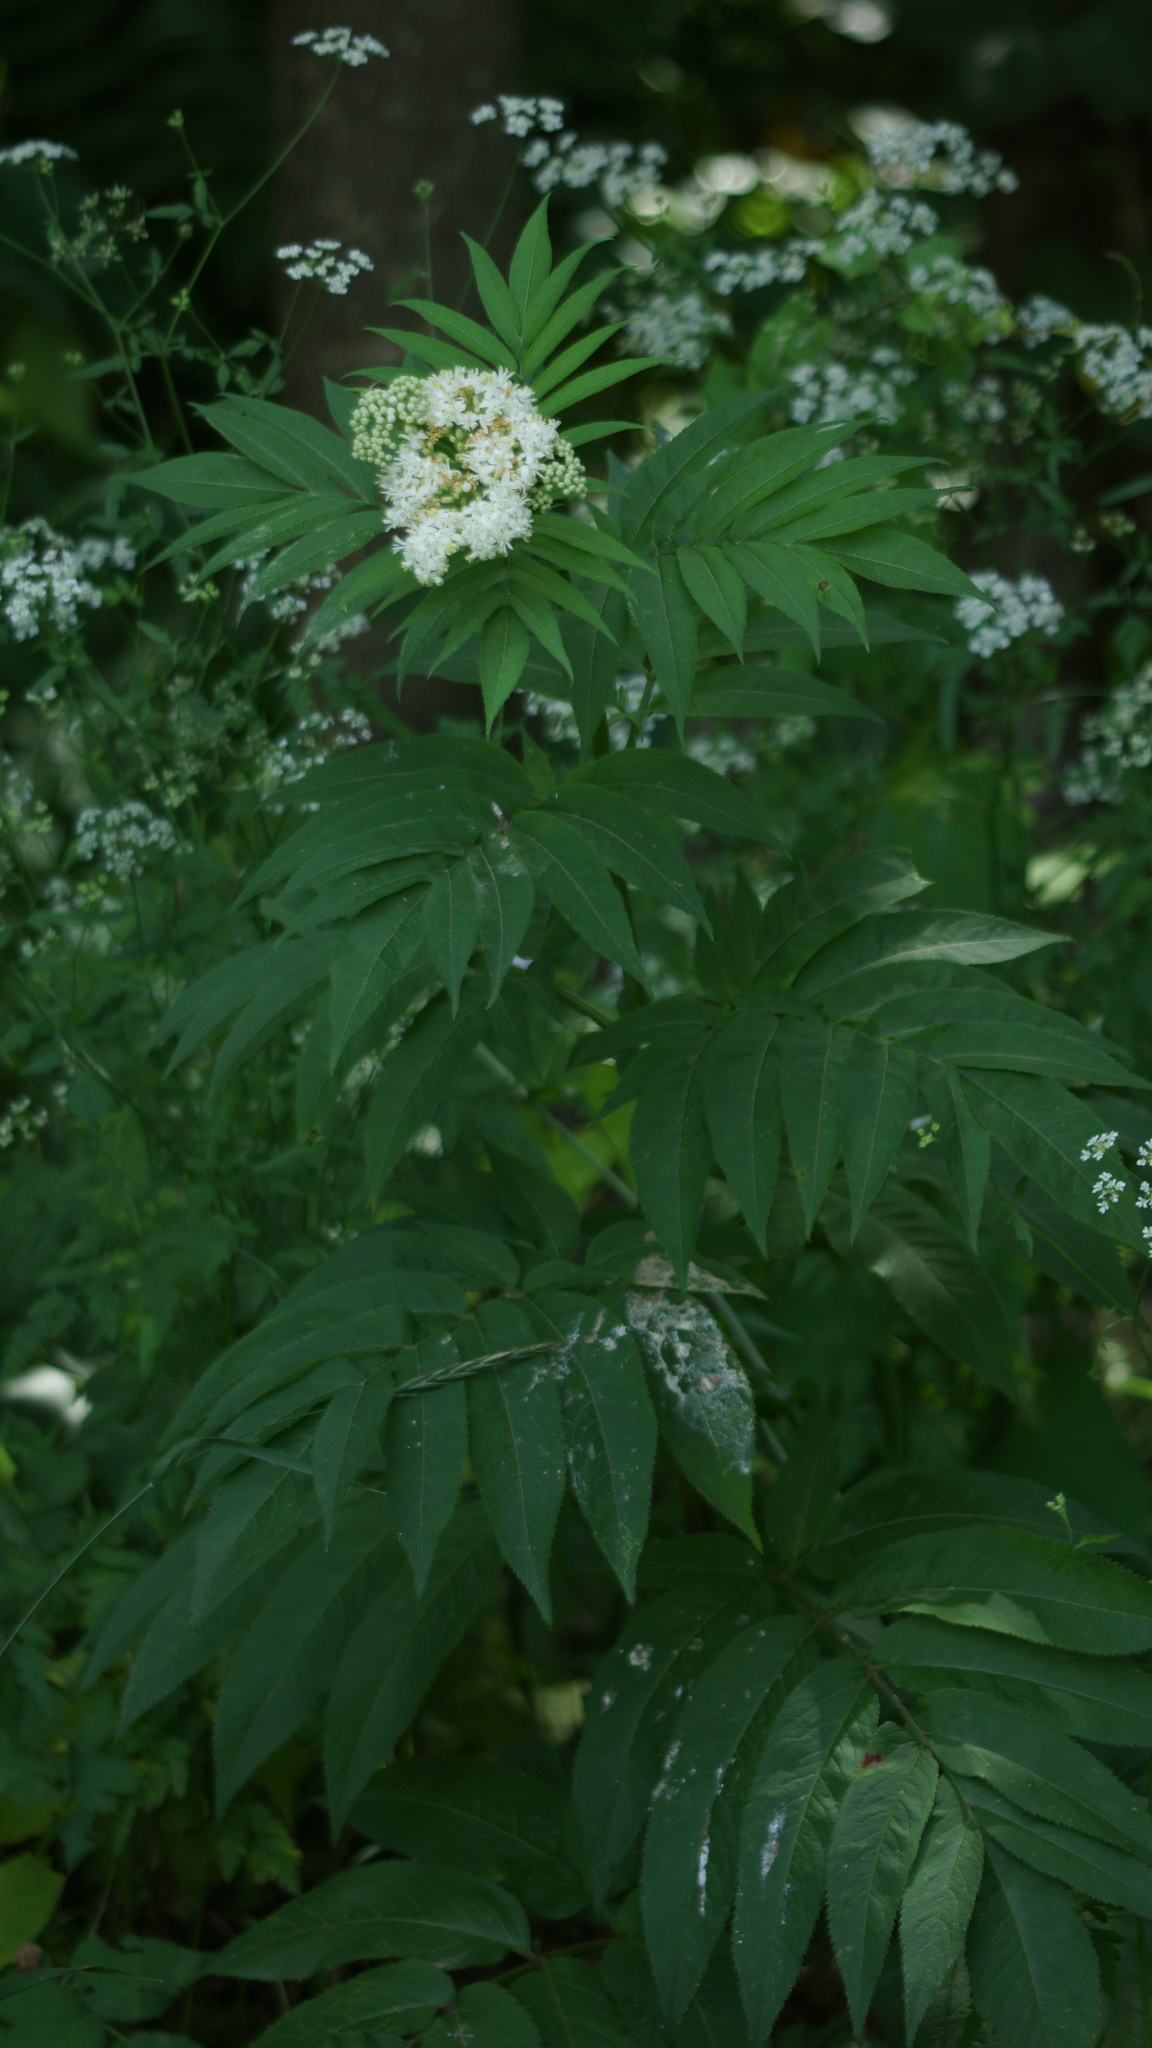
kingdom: Plantae
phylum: Tracheophyta
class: Magnoliopsida
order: Dipsacales
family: Viburnaceae
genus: Sambucus
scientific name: Sambucus ebulus
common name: Dwarf elder
